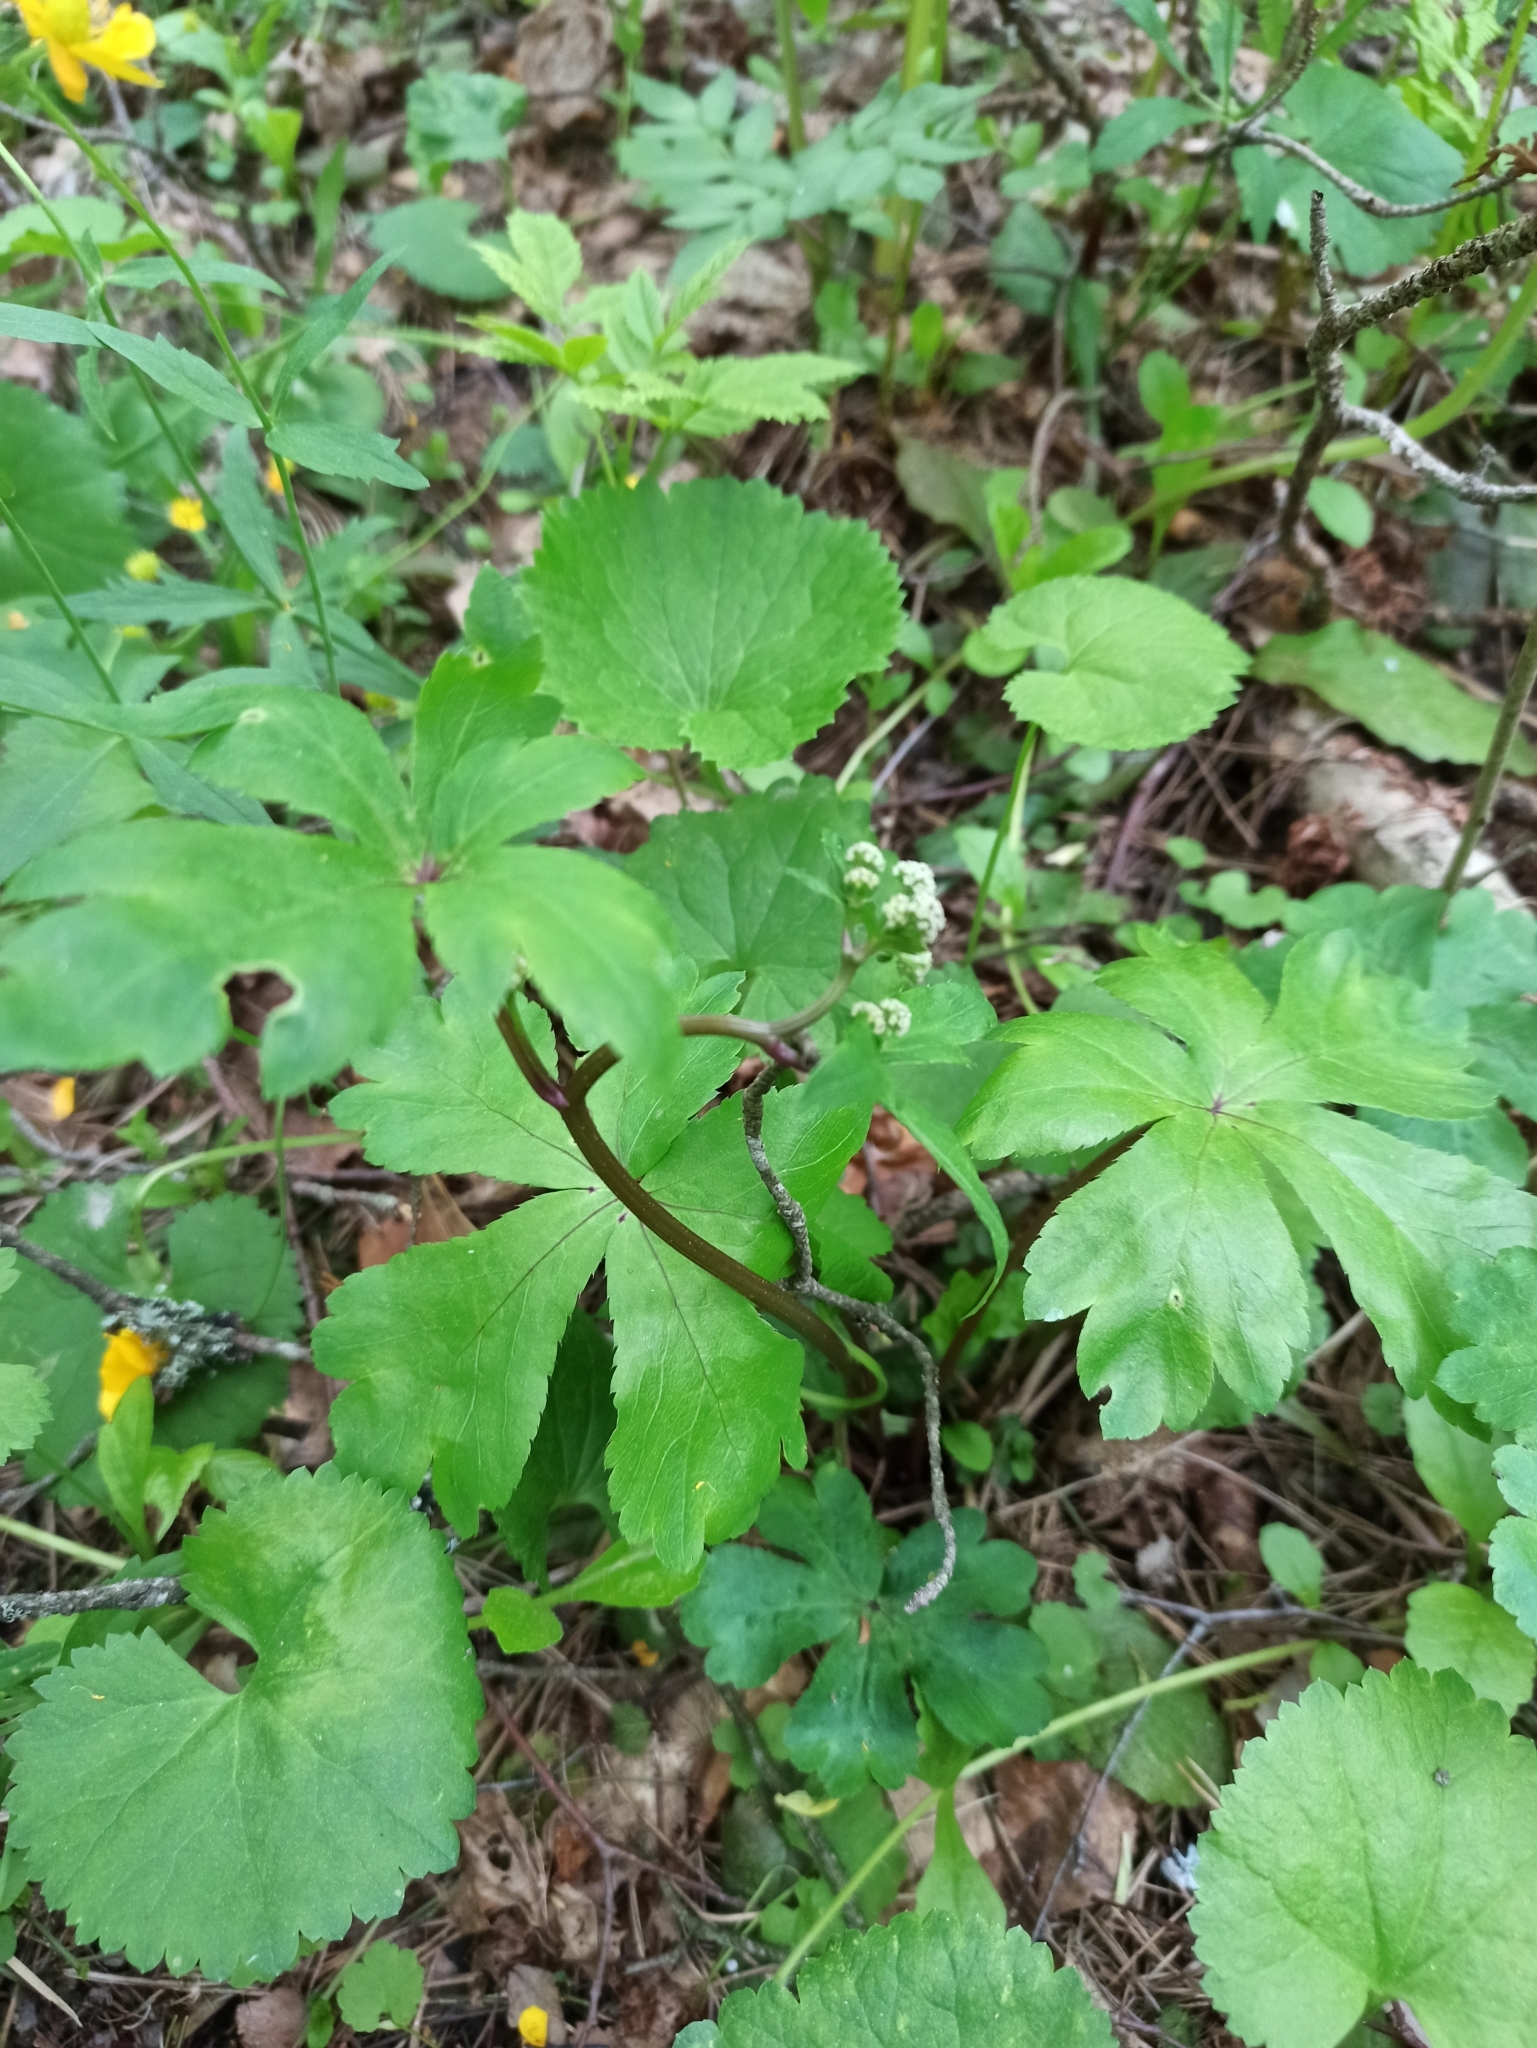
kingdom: Plantae
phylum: Tracheophyta
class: Magnoliopsida
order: Apiales
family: Apiaceae
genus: Sanicula
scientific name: Sanicula europaea
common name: Sanicle
